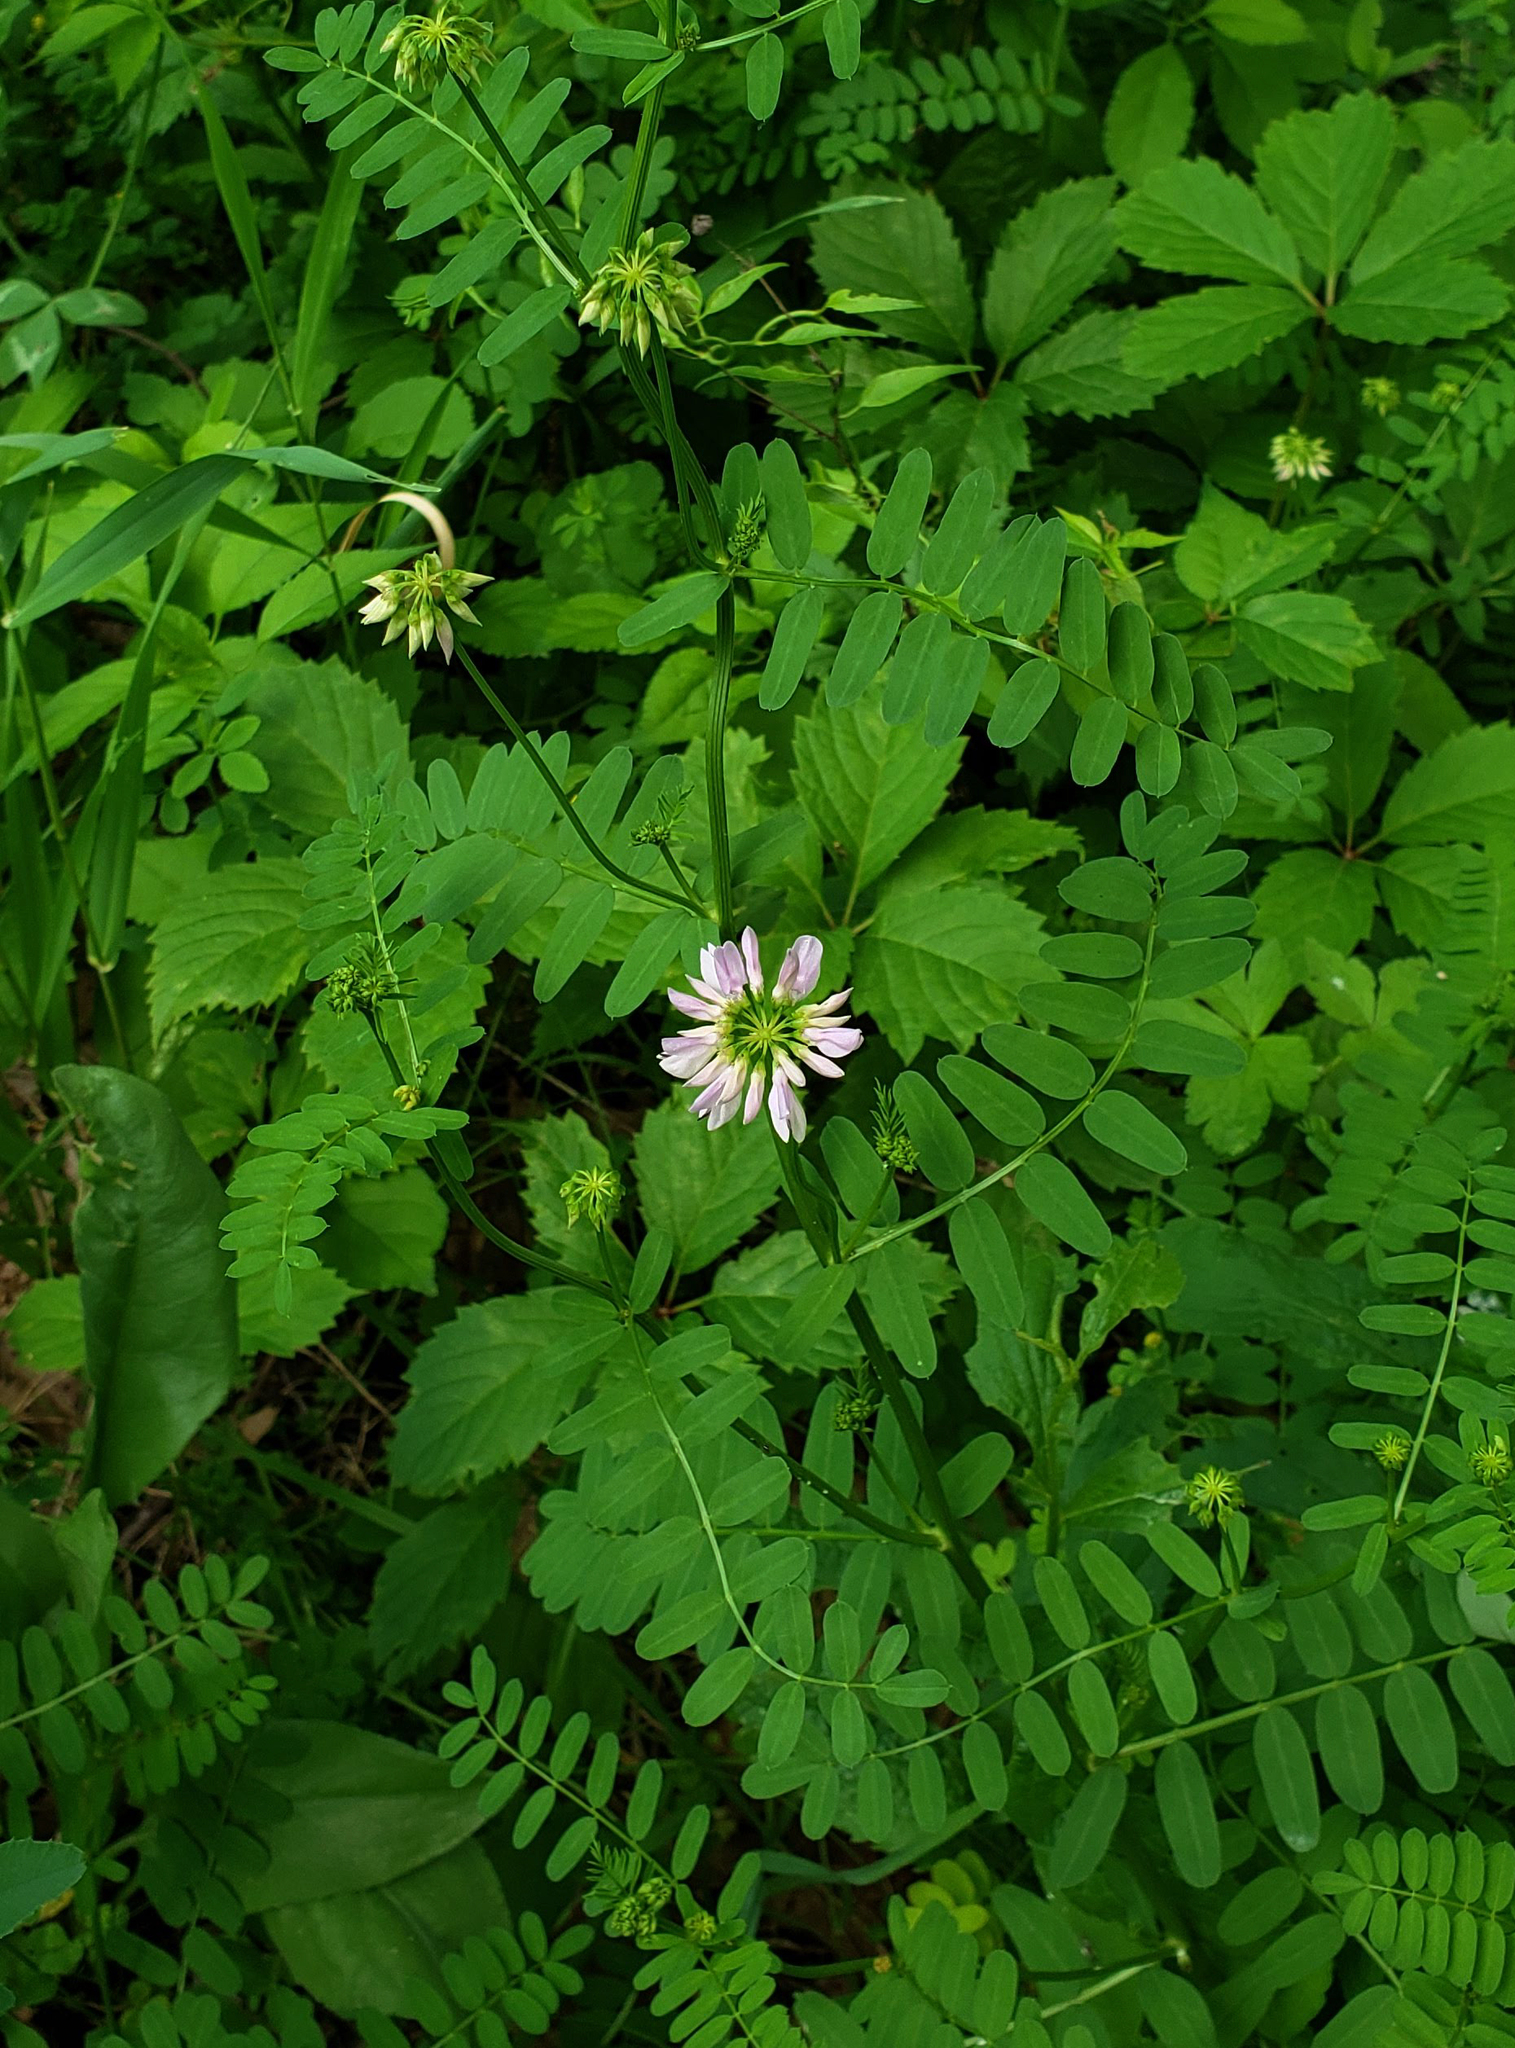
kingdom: Plantae
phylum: Tracheophyta
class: Magnoliopsida
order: Fabales
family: Fabaceae
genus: Coronilla
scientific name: Coronilla varia
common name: Crownvetch
